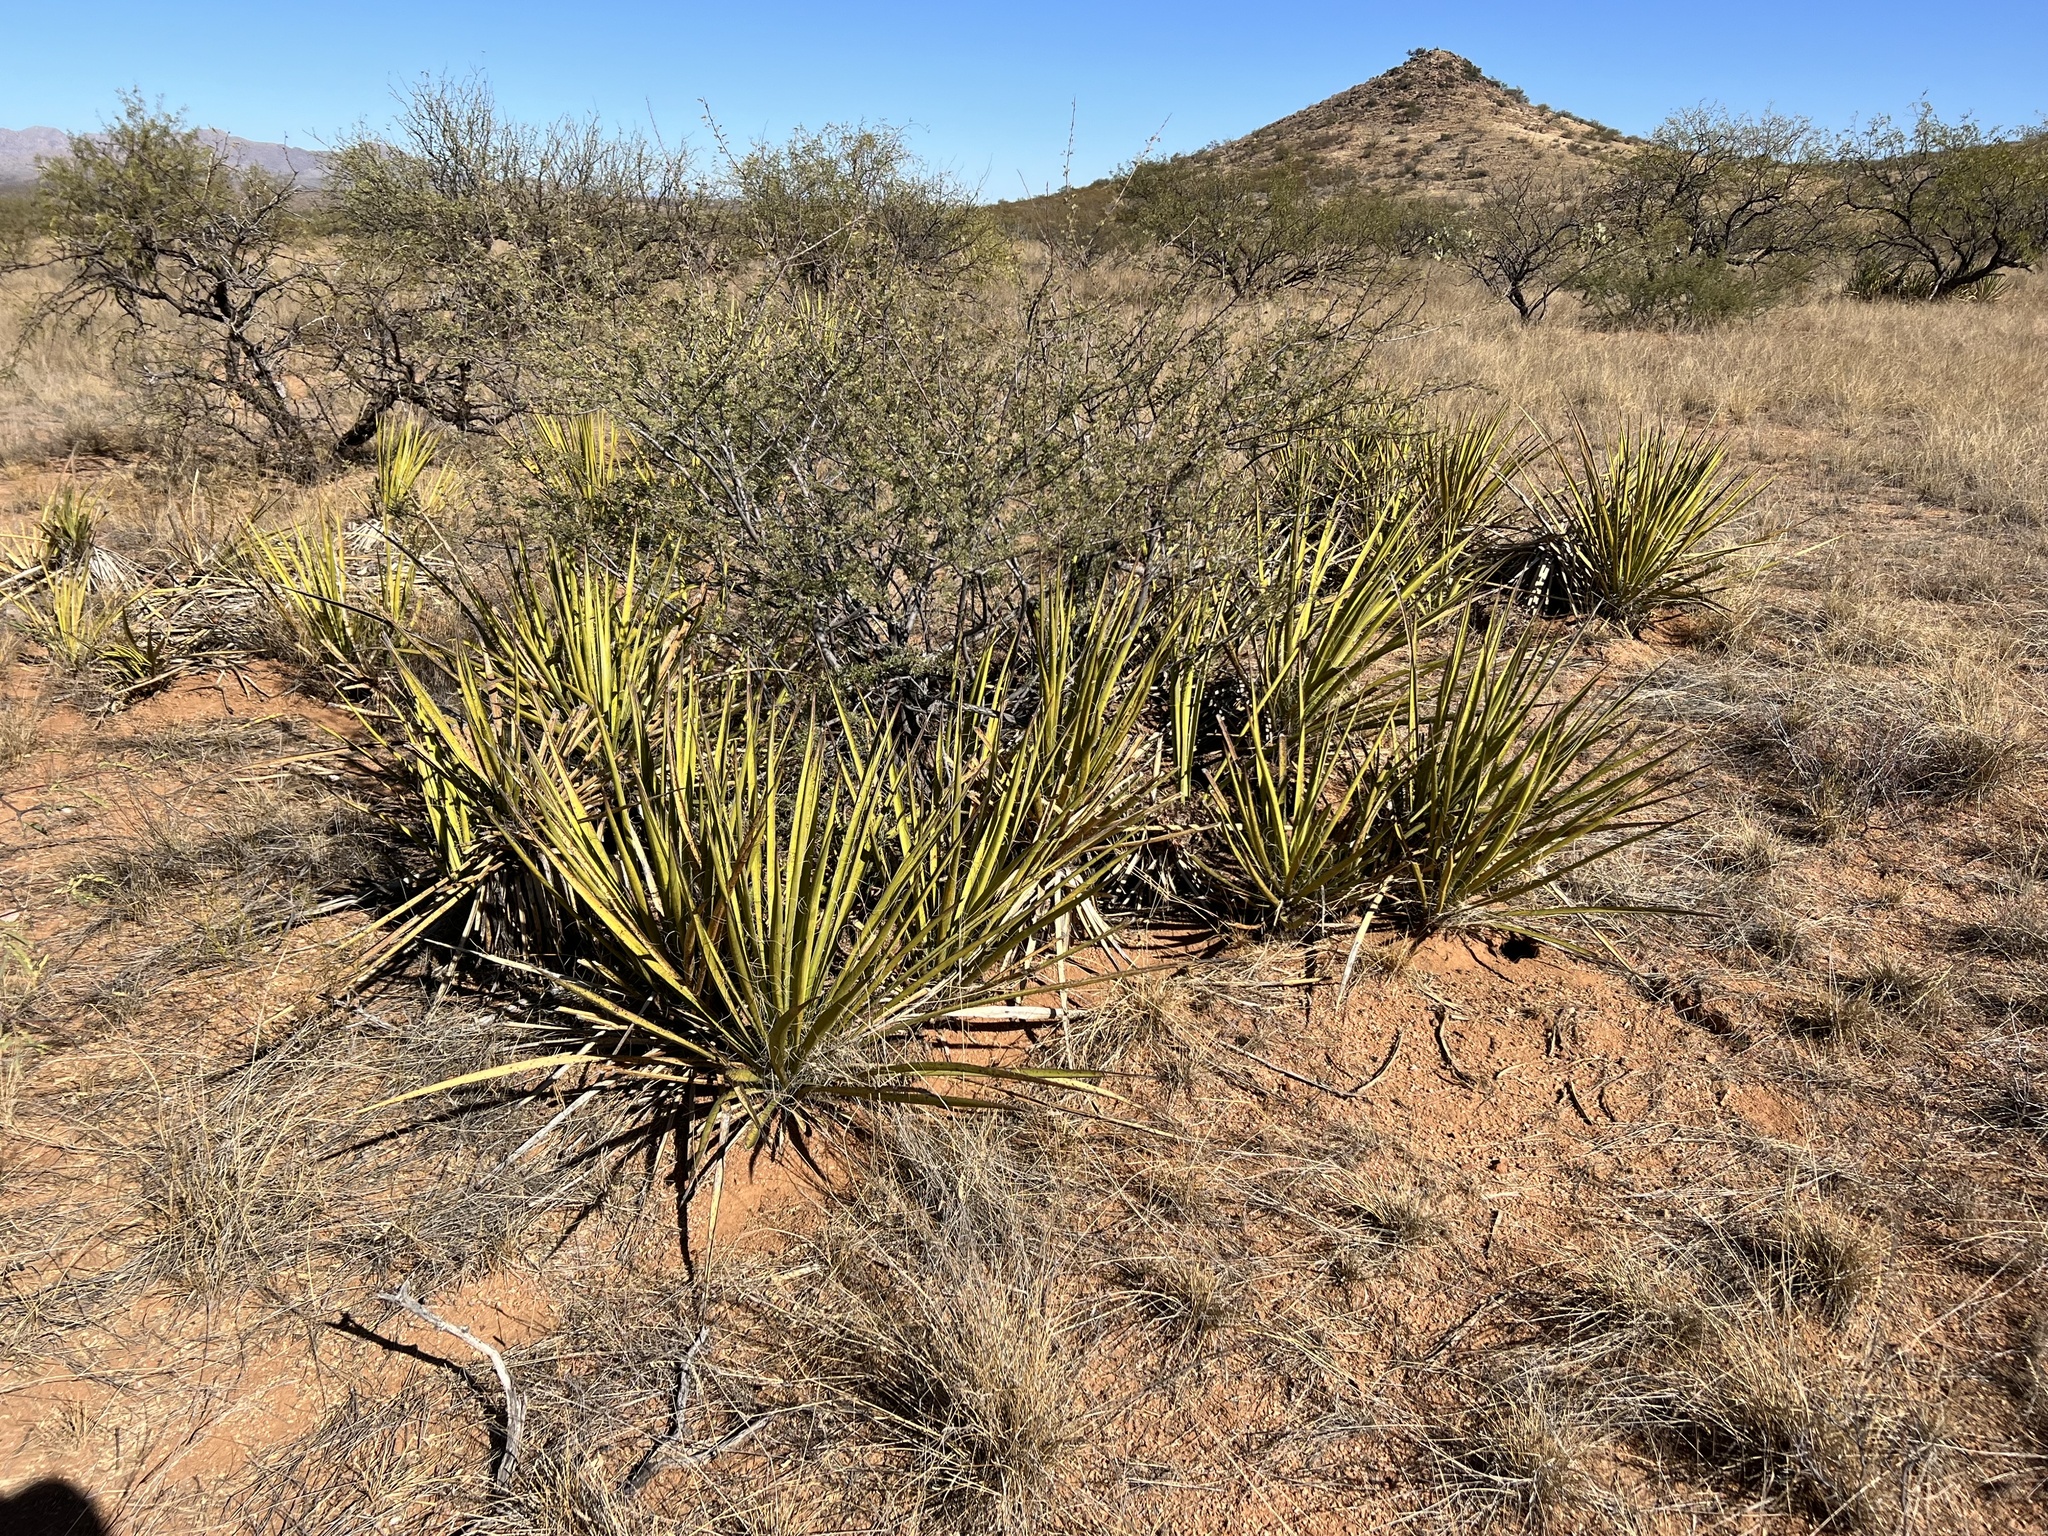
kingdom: Plantae
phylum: Tracheophyta
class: Liliopsida
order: Asparagales
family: Asparagaceae
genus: Yucca
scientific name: Yucca baccata
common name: Banana yucca
